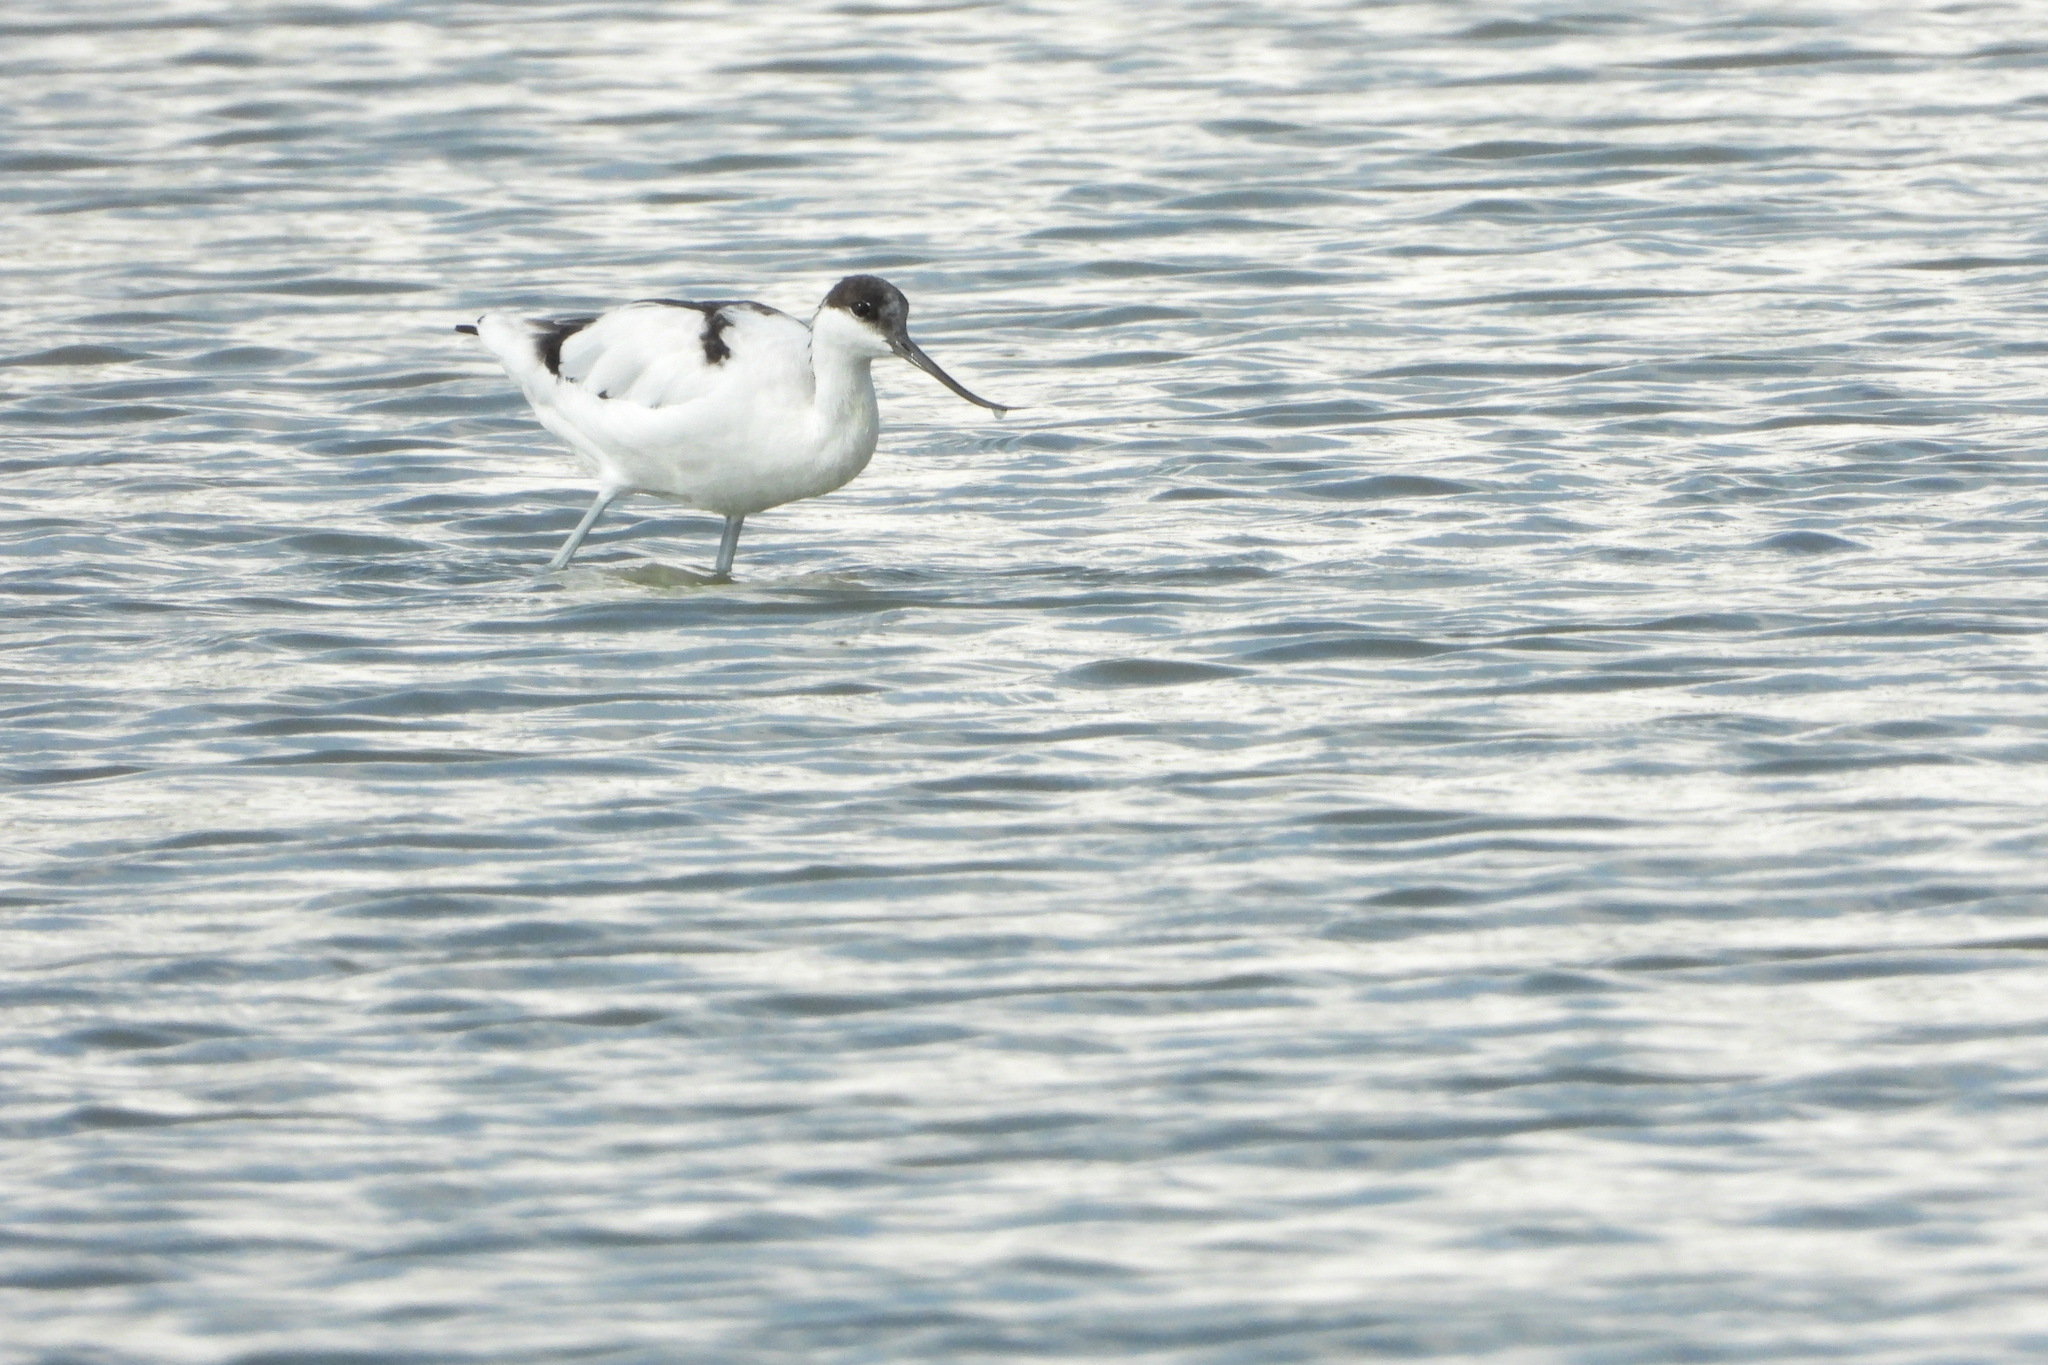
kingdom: Animalia
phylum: Chordata
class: Aves
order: Charadriiformes
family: Recurvirostridae
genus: Recurvirostra
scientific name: Recurvirostra avosetta
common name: Pied avocet
